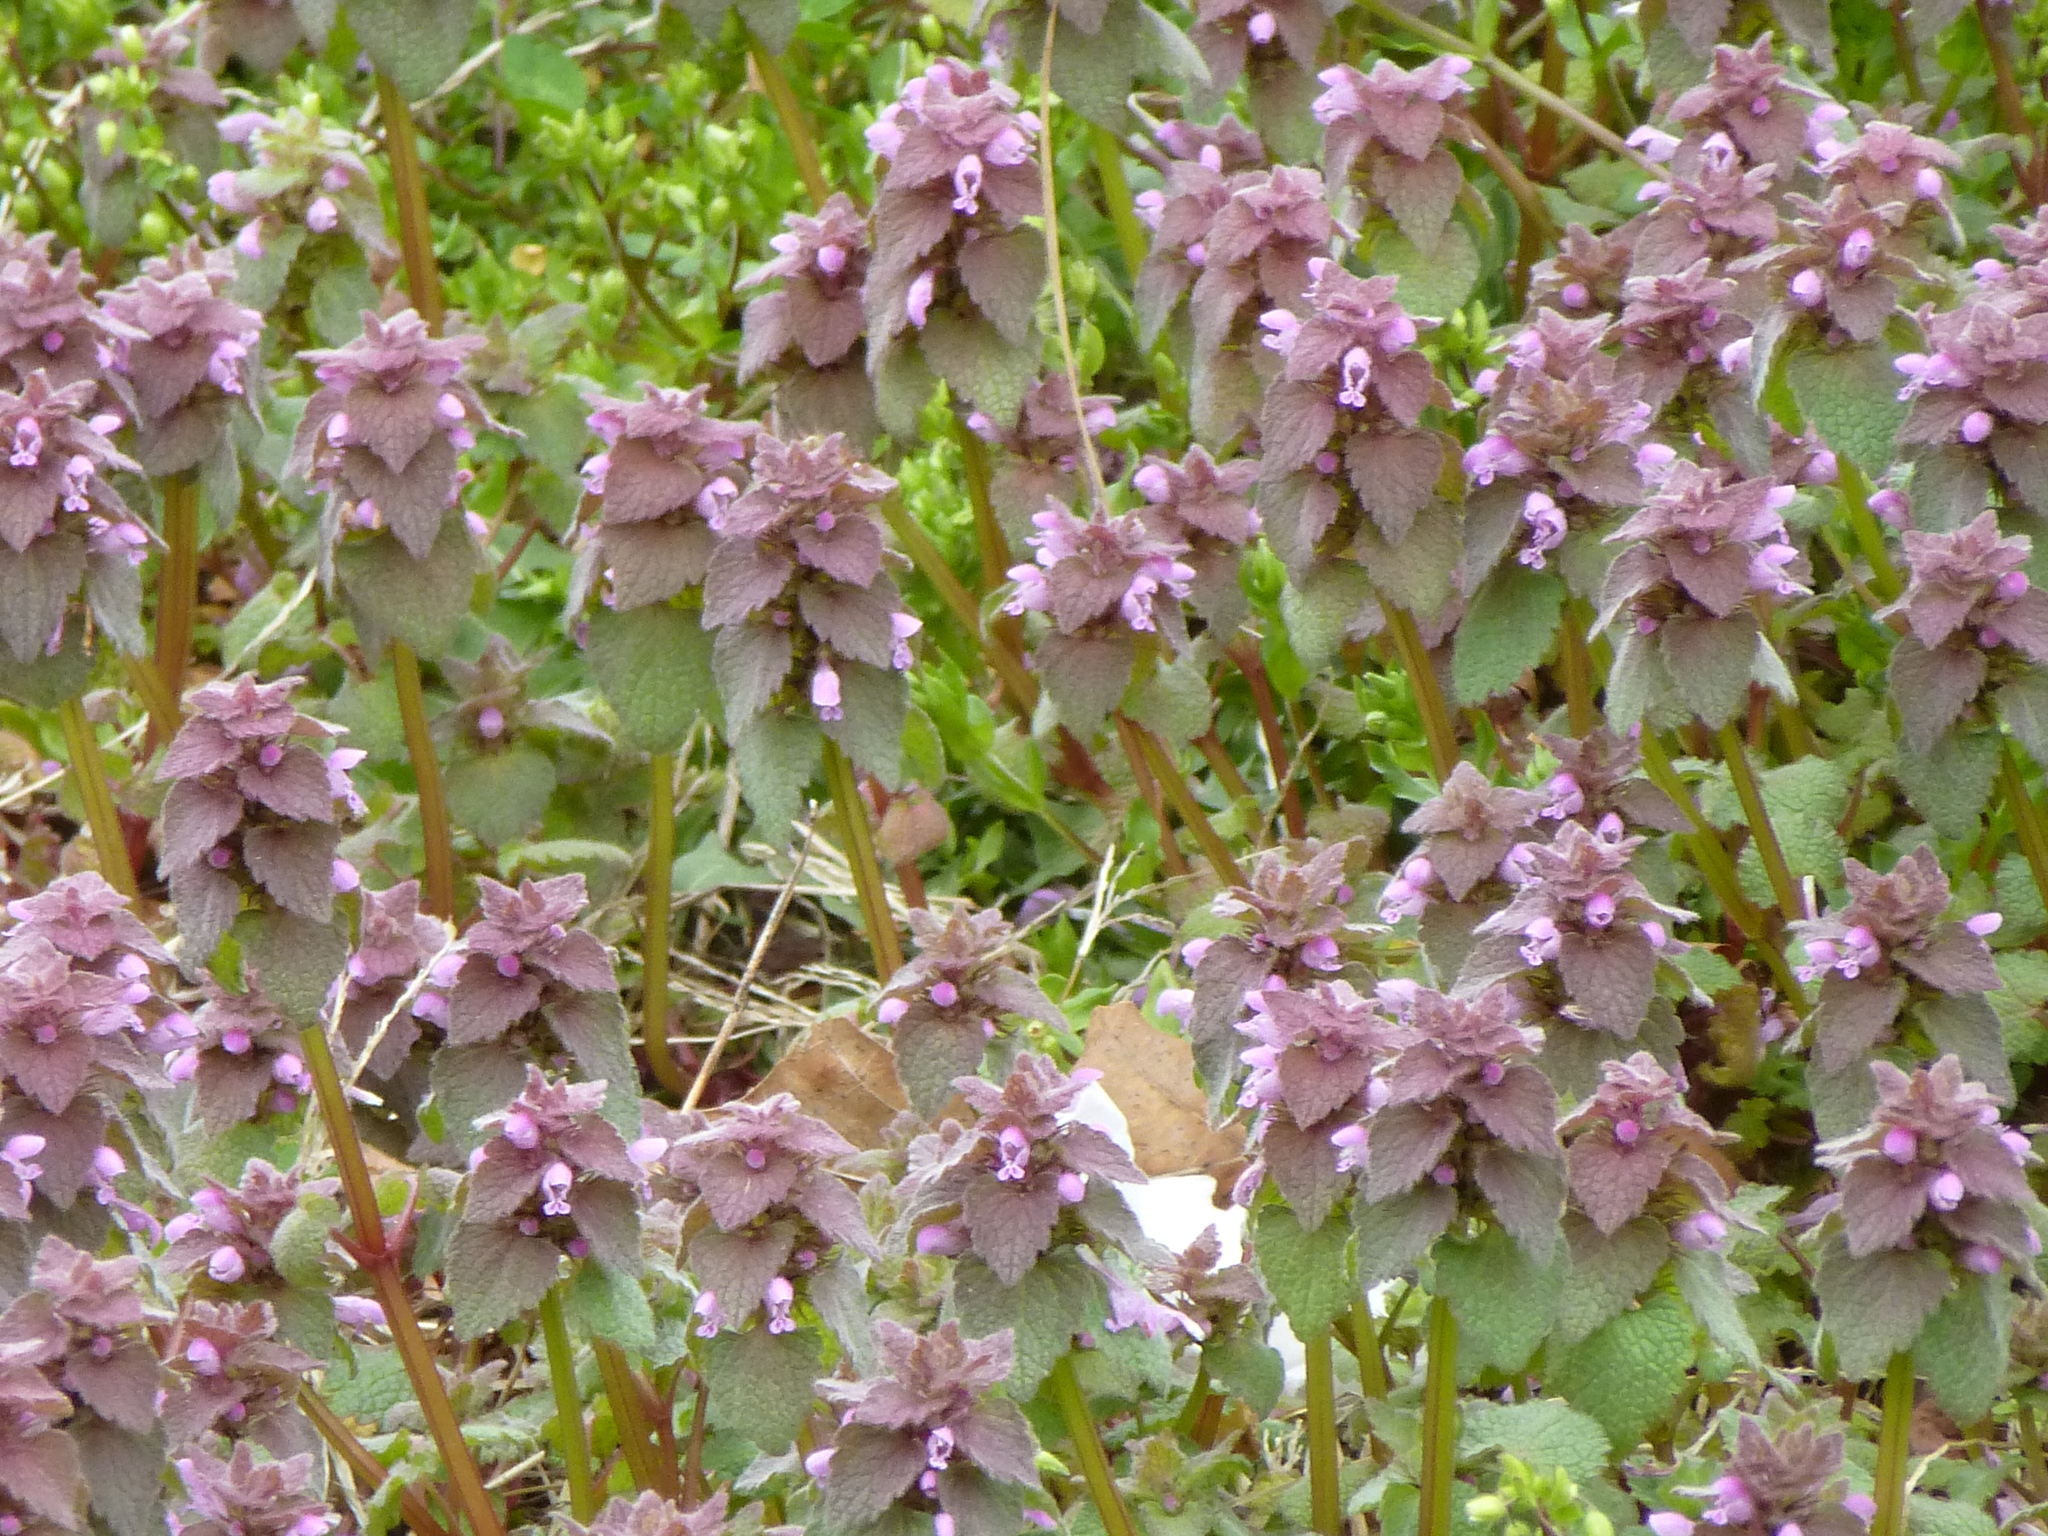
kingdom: Plantae
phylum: Tracheophyta
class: Magnoliopsida
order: Lamiales
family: Lamiaceae
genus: Lamium
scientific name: Lamium purpureum
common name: Red dead-nettle
